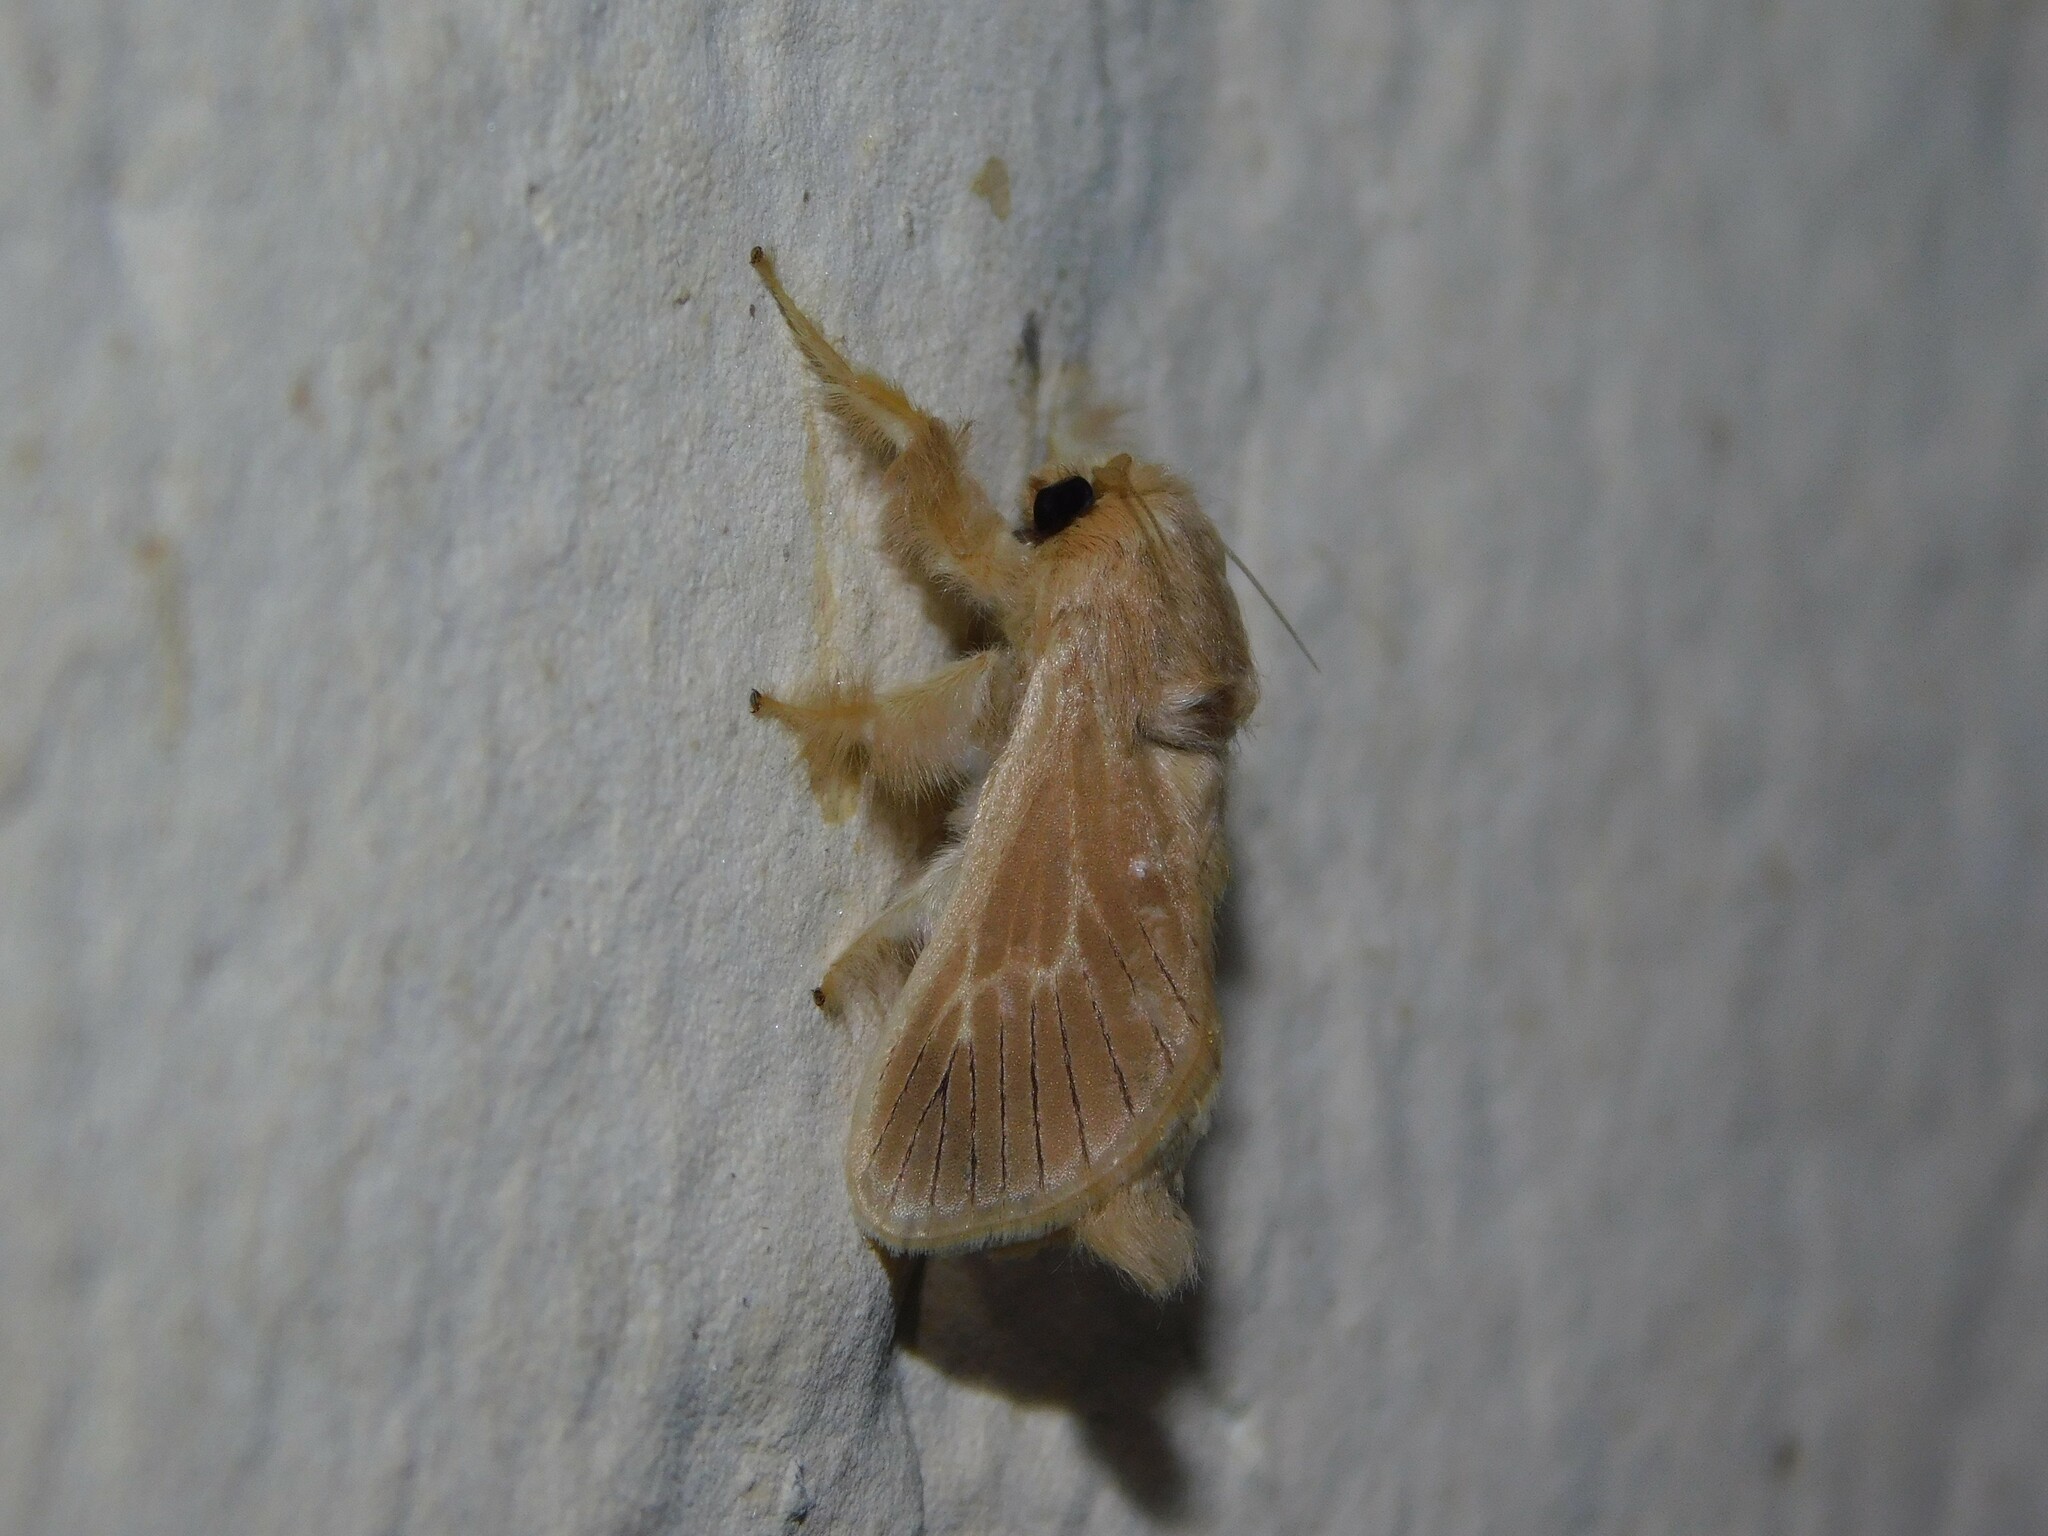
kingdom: Animalia
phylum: Arthropoda
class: Insecta
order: Lepidoptera
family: Limacodidae
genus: Delorhachis
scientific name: Delorhachis nigrivenosa
